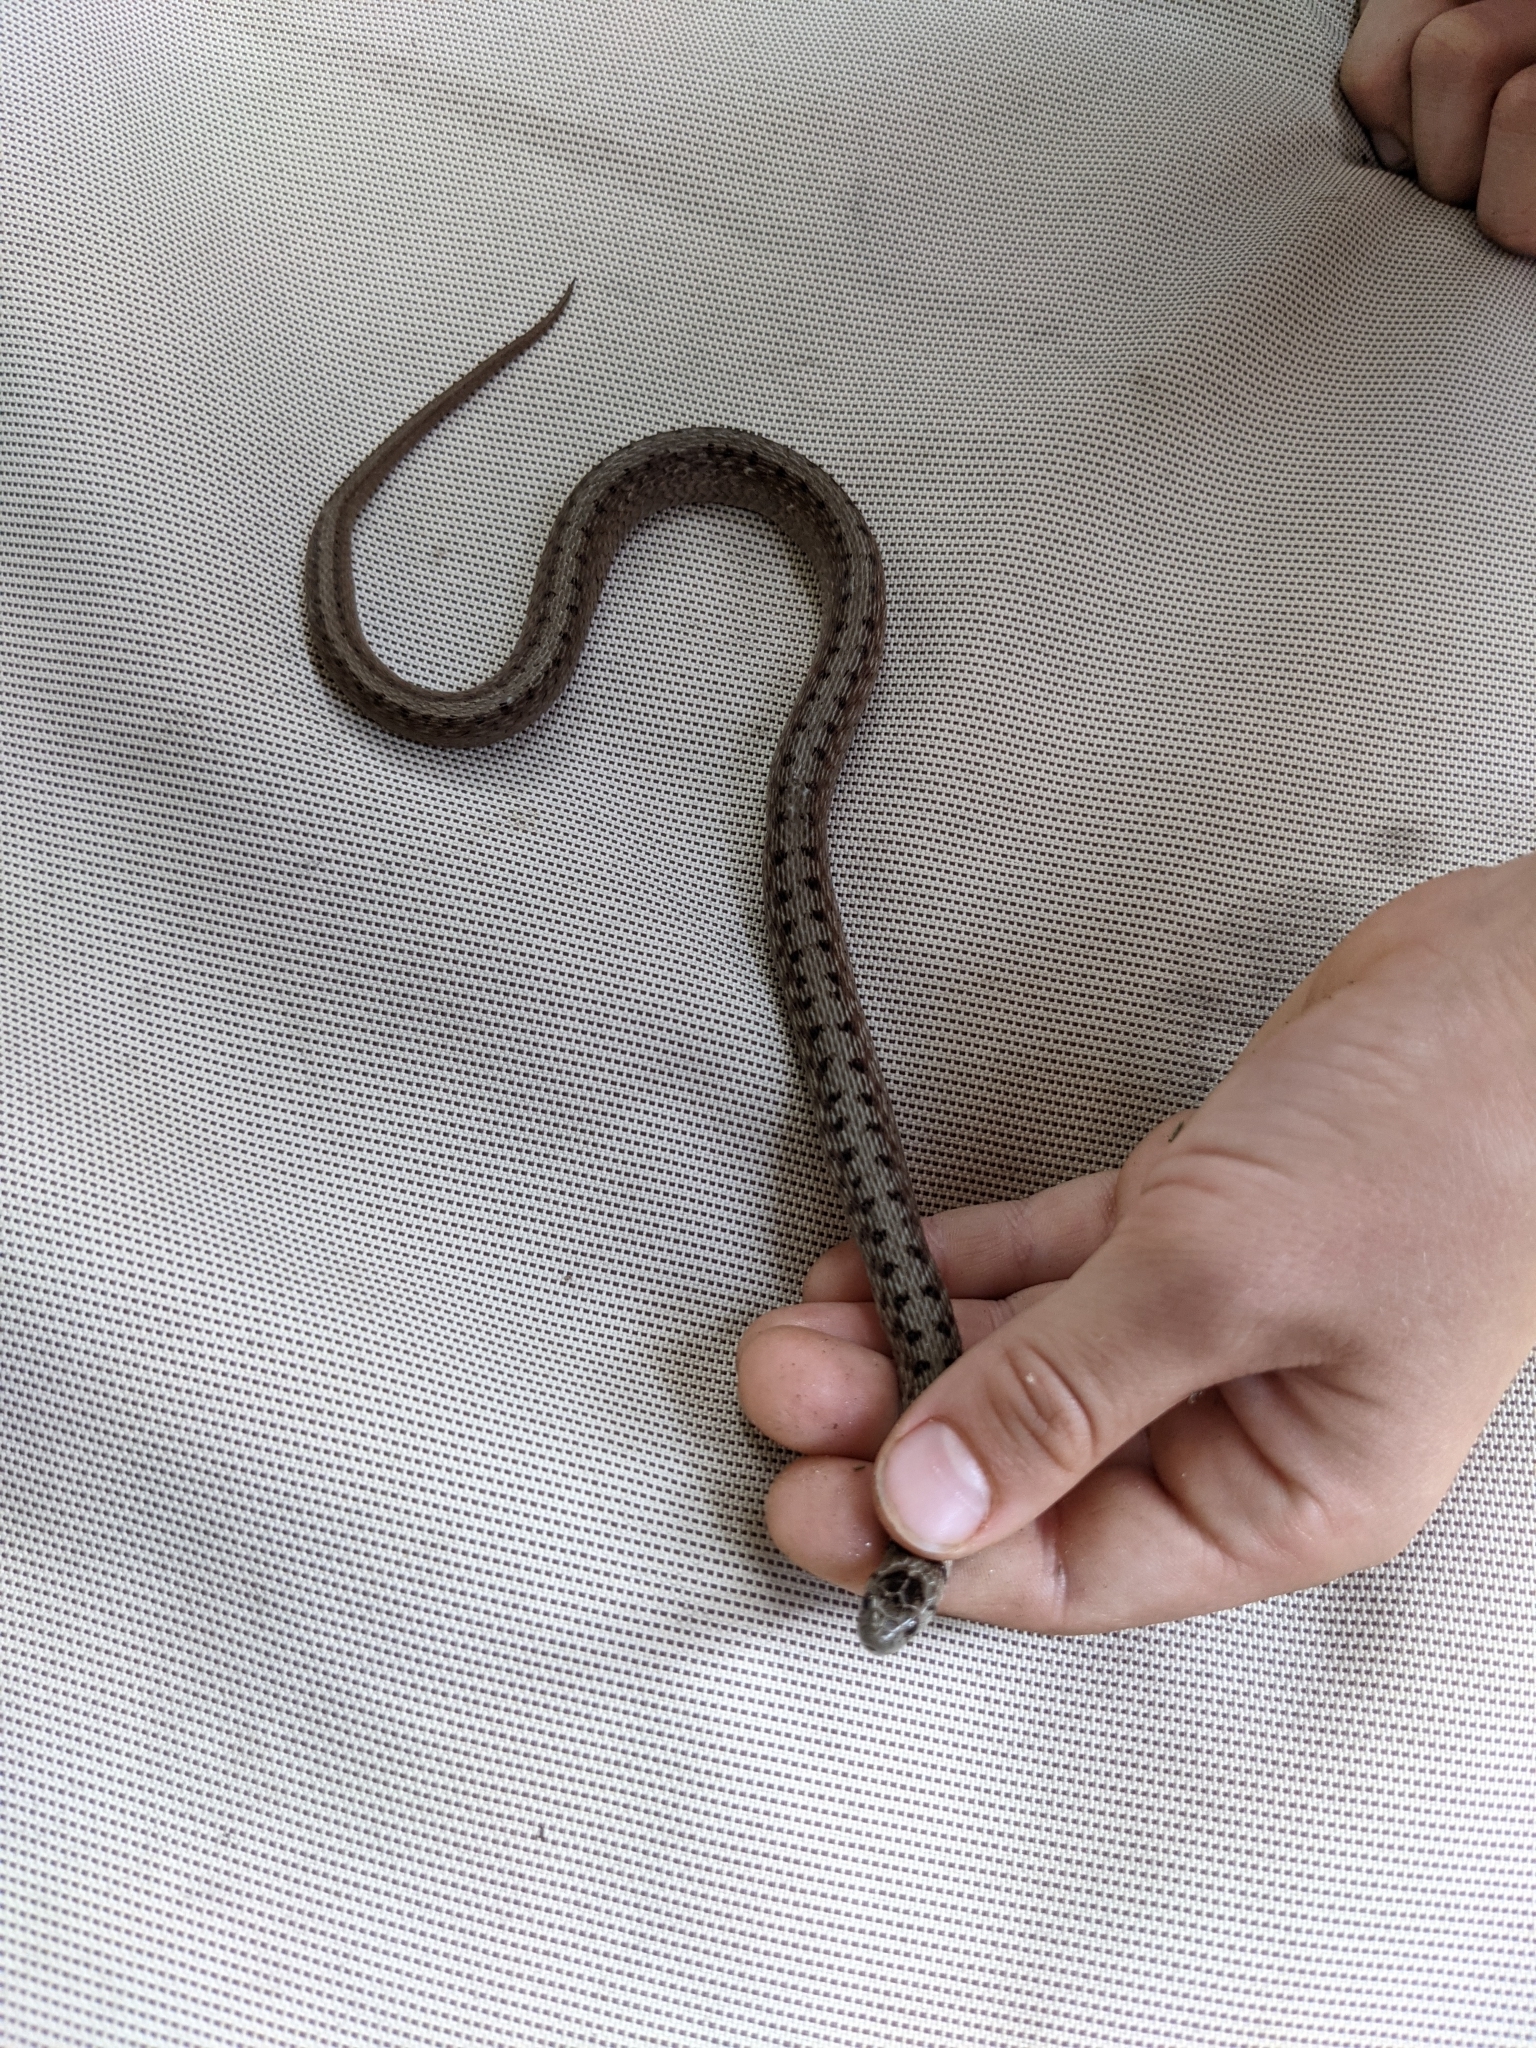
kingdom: Animalia
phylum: Chordata
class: Squamata
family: Colubridae
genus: Storeria
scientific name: Storeria dekayi
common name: (dekay’s) brown snake
